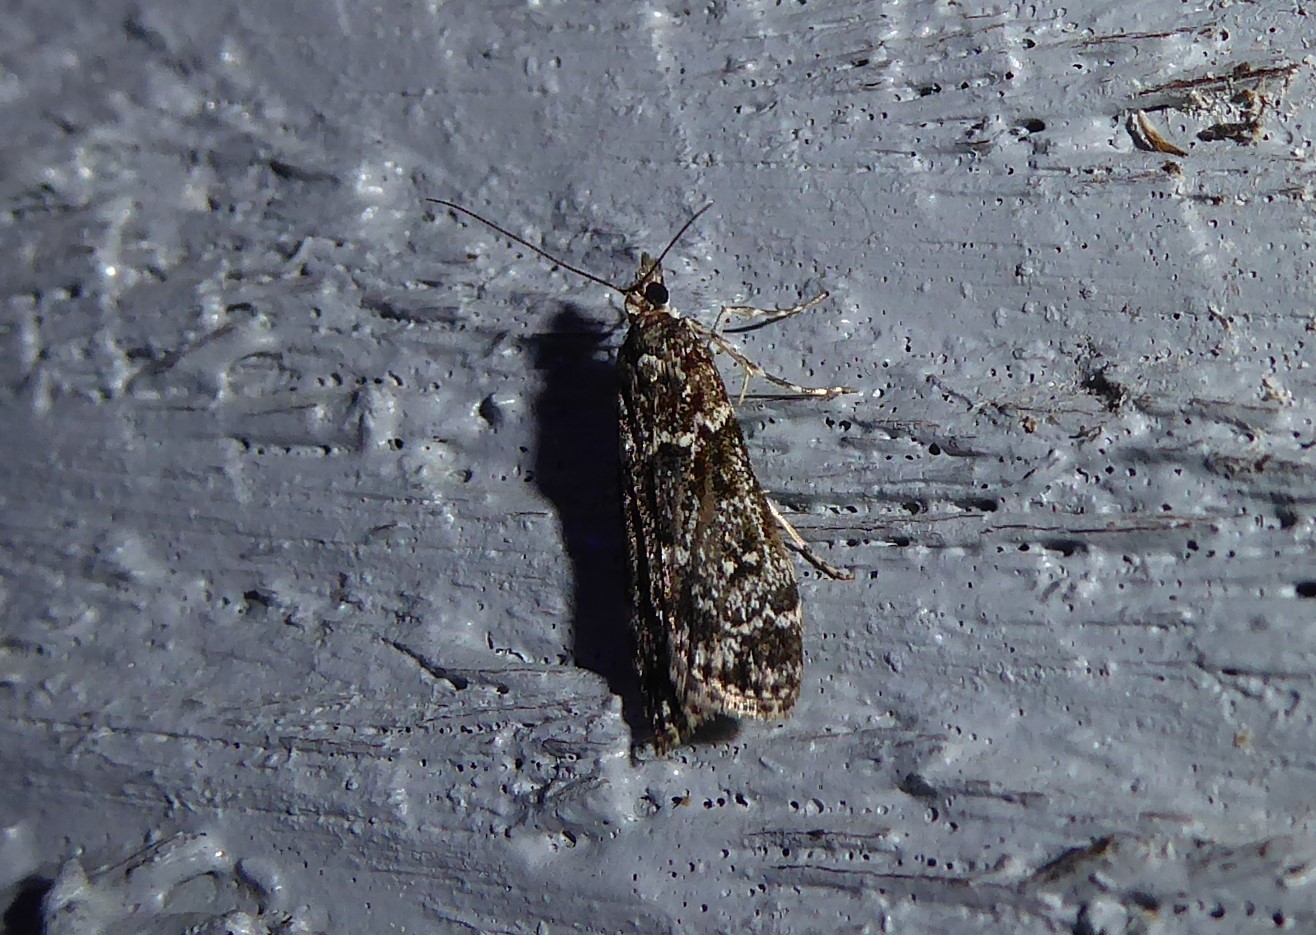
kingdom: Animalia
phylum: Arthropoda
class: Insecta
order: Lepidoptera
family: Crambidae
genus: Eudonia
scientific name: Eudonia philerga
